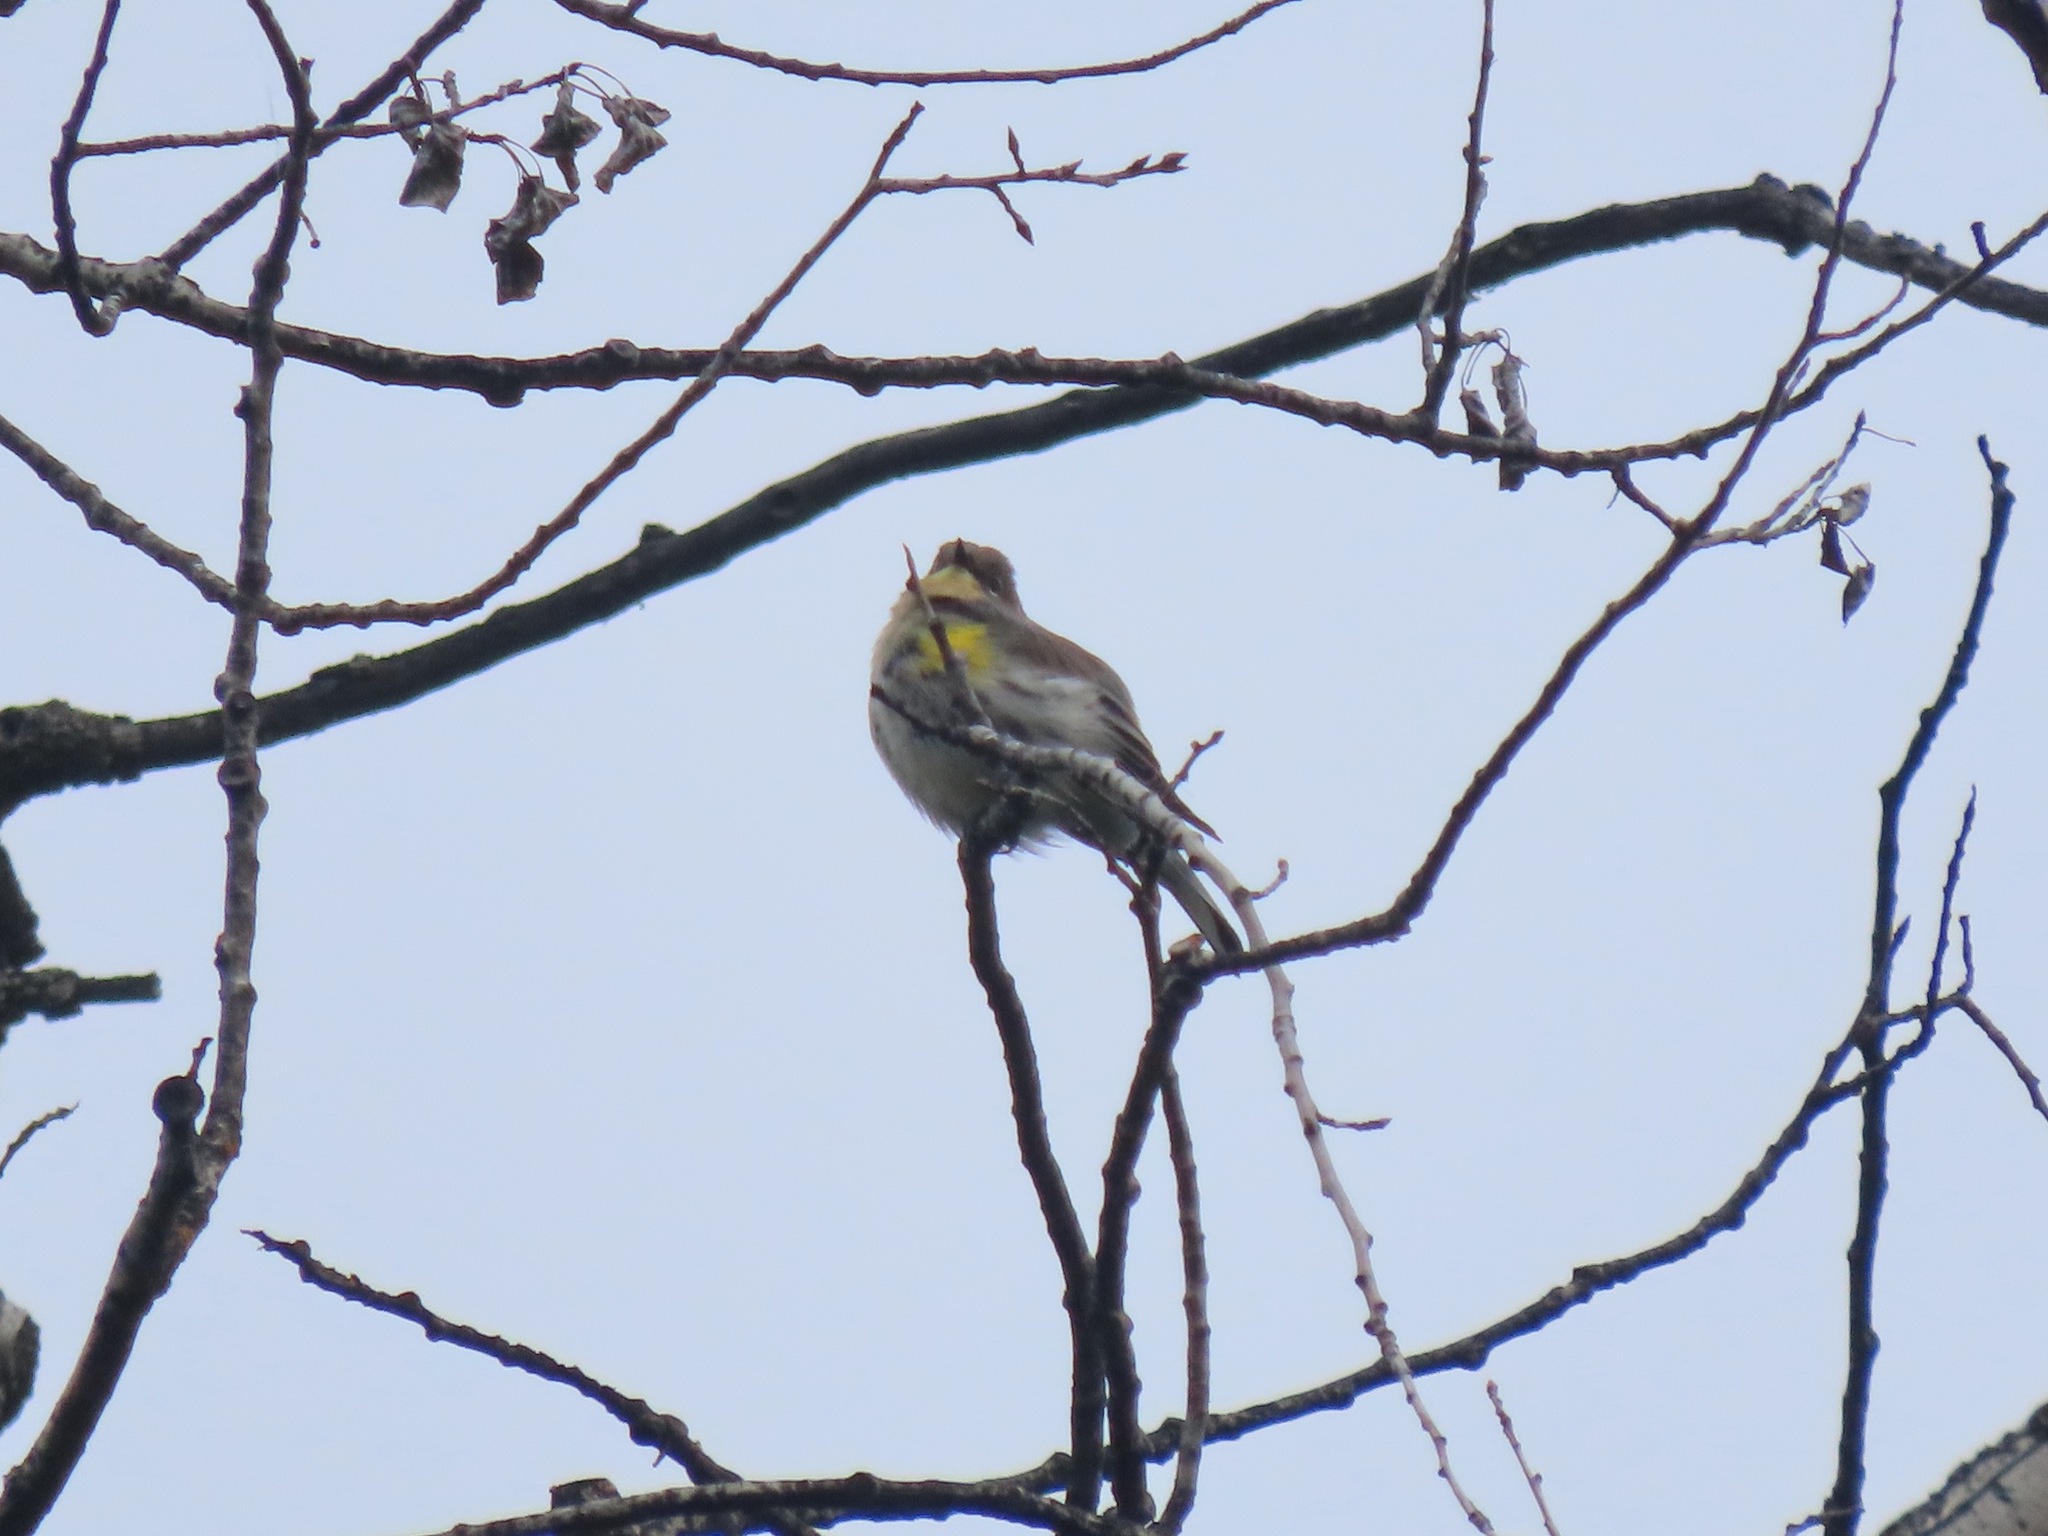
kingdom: Animalia
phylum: Chordata
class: Aves
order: Passeriformes
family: Parulidae
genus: Setophaga
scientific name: Setophaga coronata
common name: Myrtle warbler
